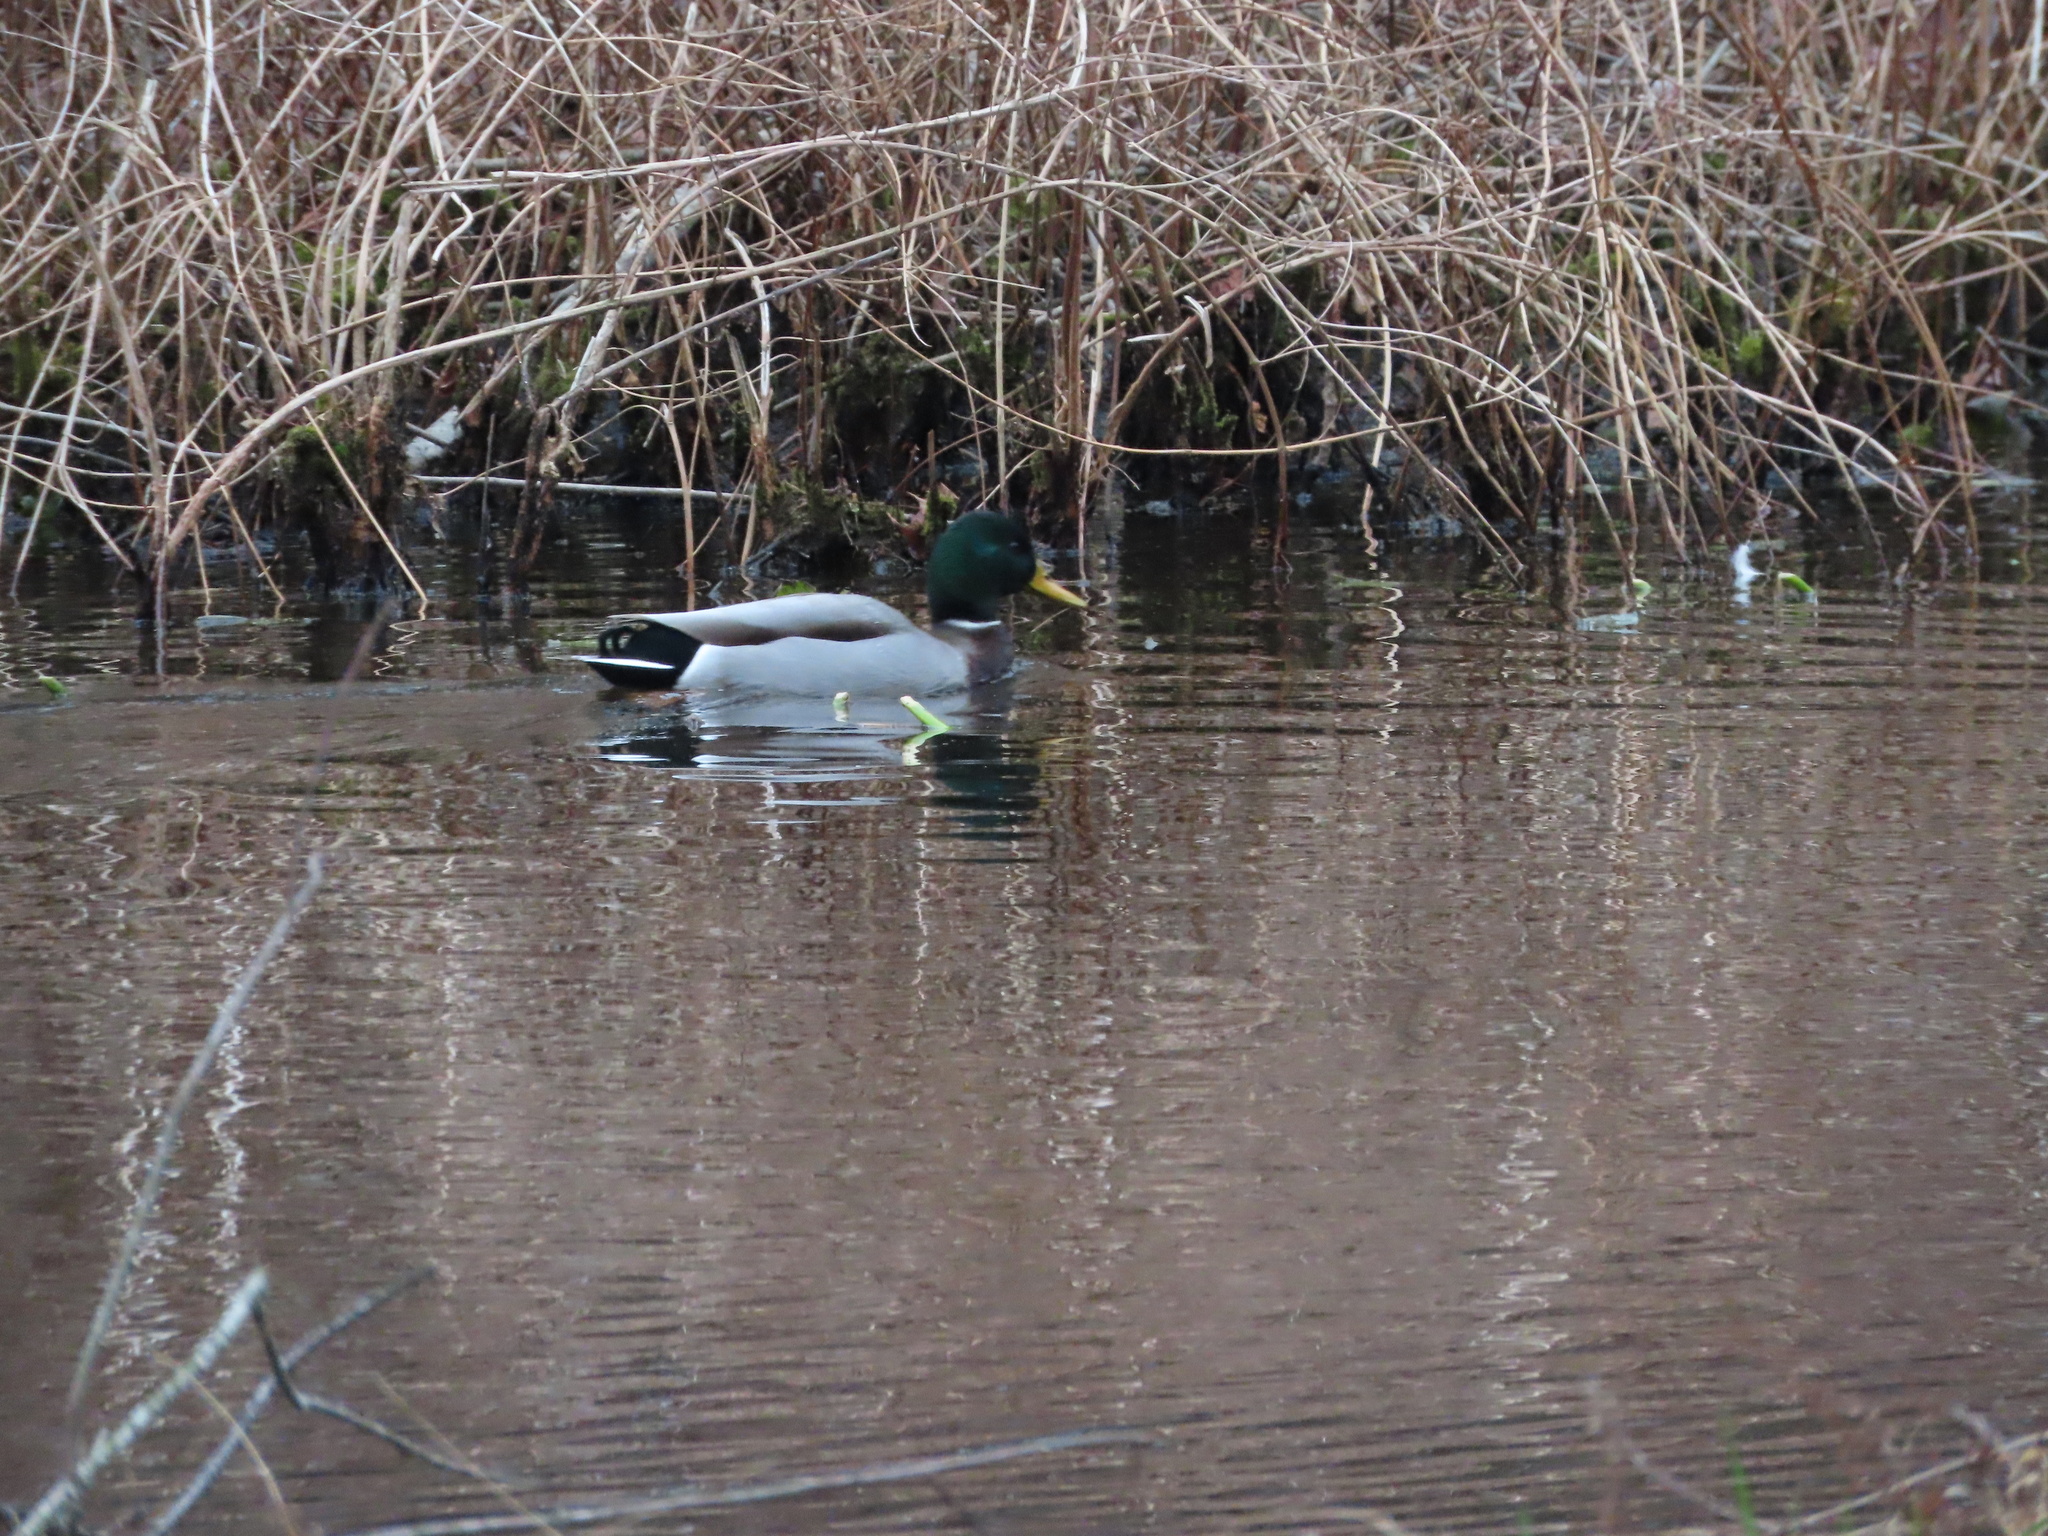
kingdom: Animalia
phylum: Chordata
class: Aves
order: Anseriformes
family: Anatidae
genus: Anas
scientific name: Anas platyrhynchos
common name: Mallard
